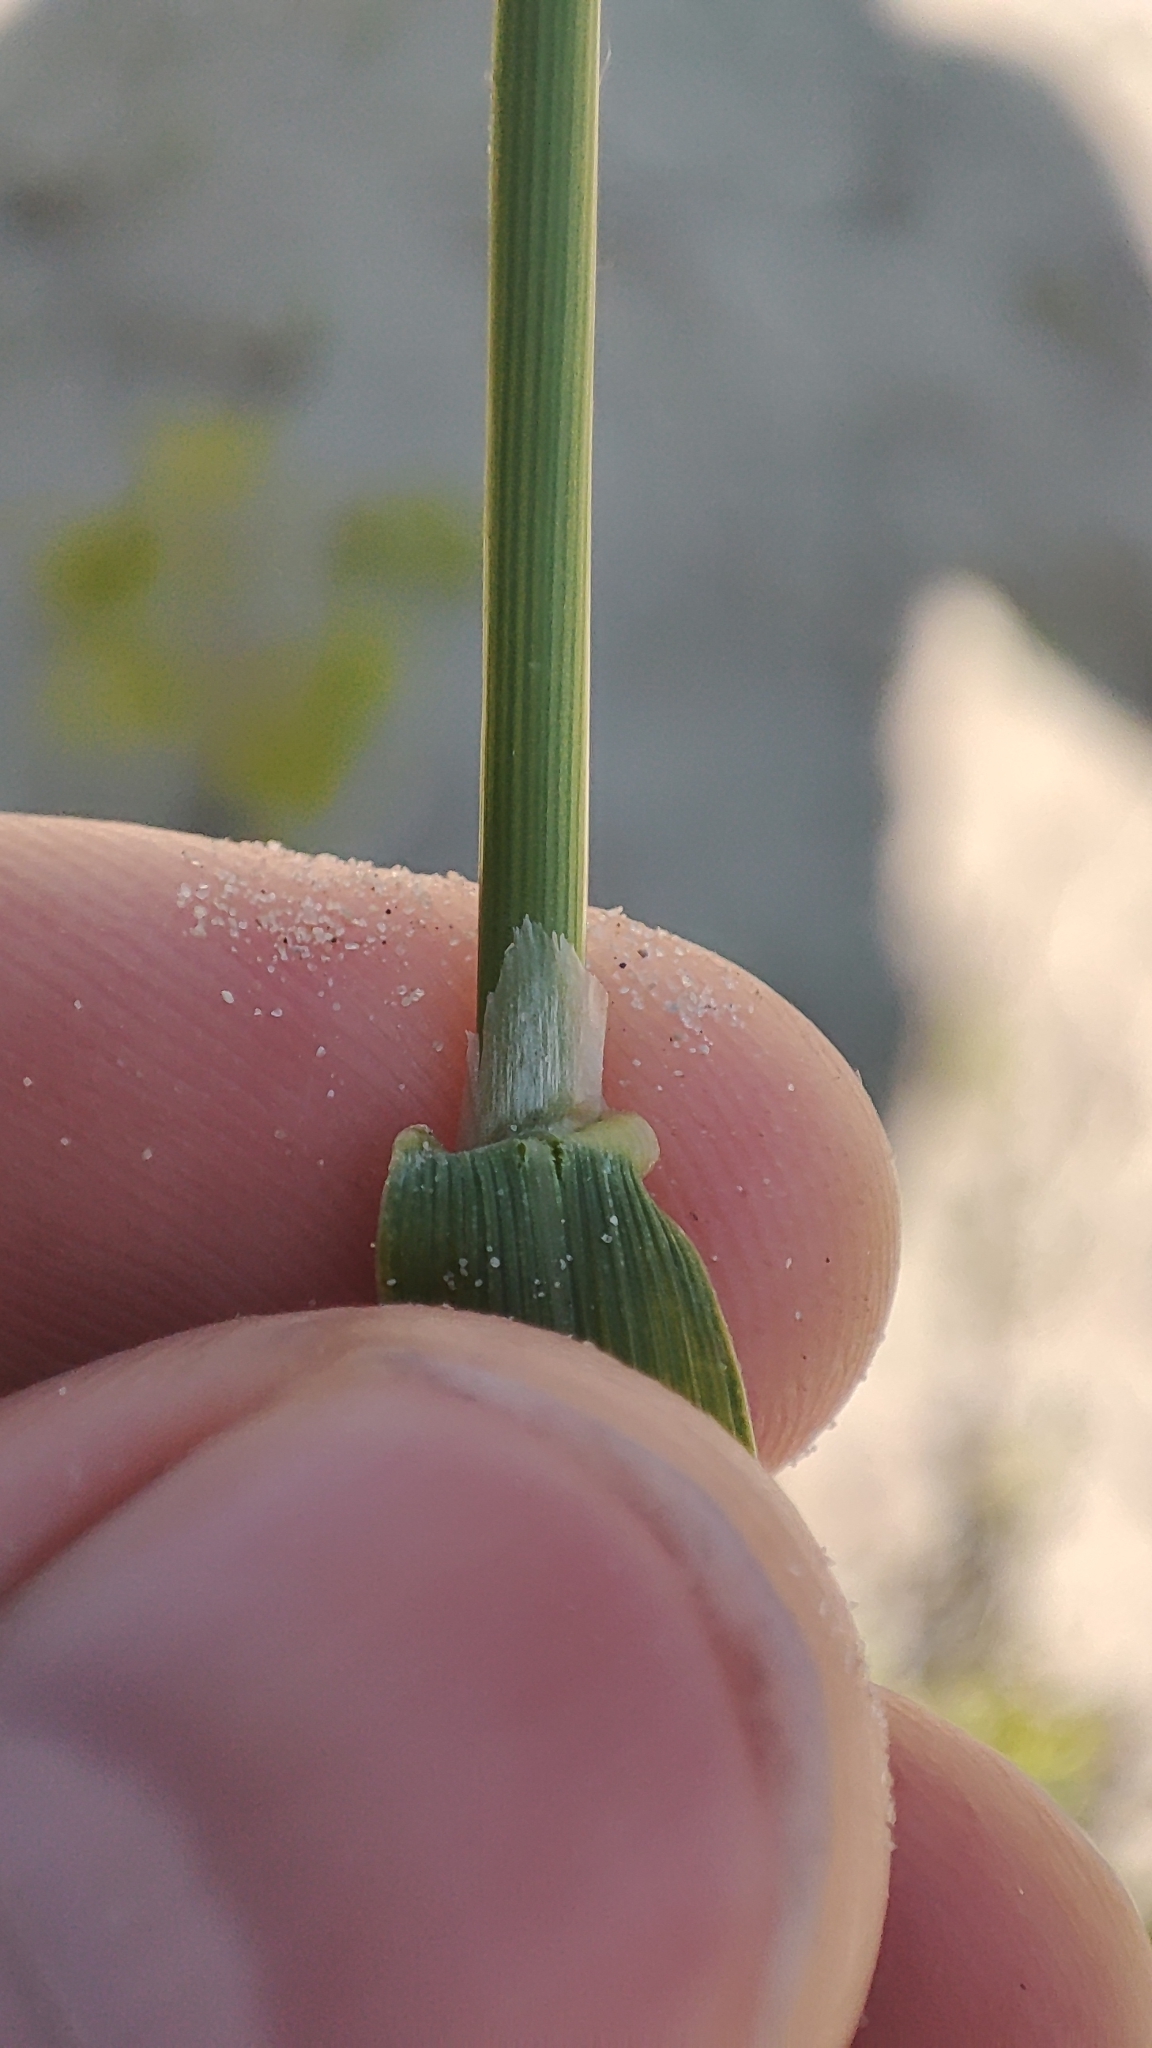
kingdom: Plantae
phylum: Tracheophyta
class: Liliopsida
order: Poales
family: Poaceae
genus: Agrostis
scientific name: Agrostis gigantea
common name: Black bent
